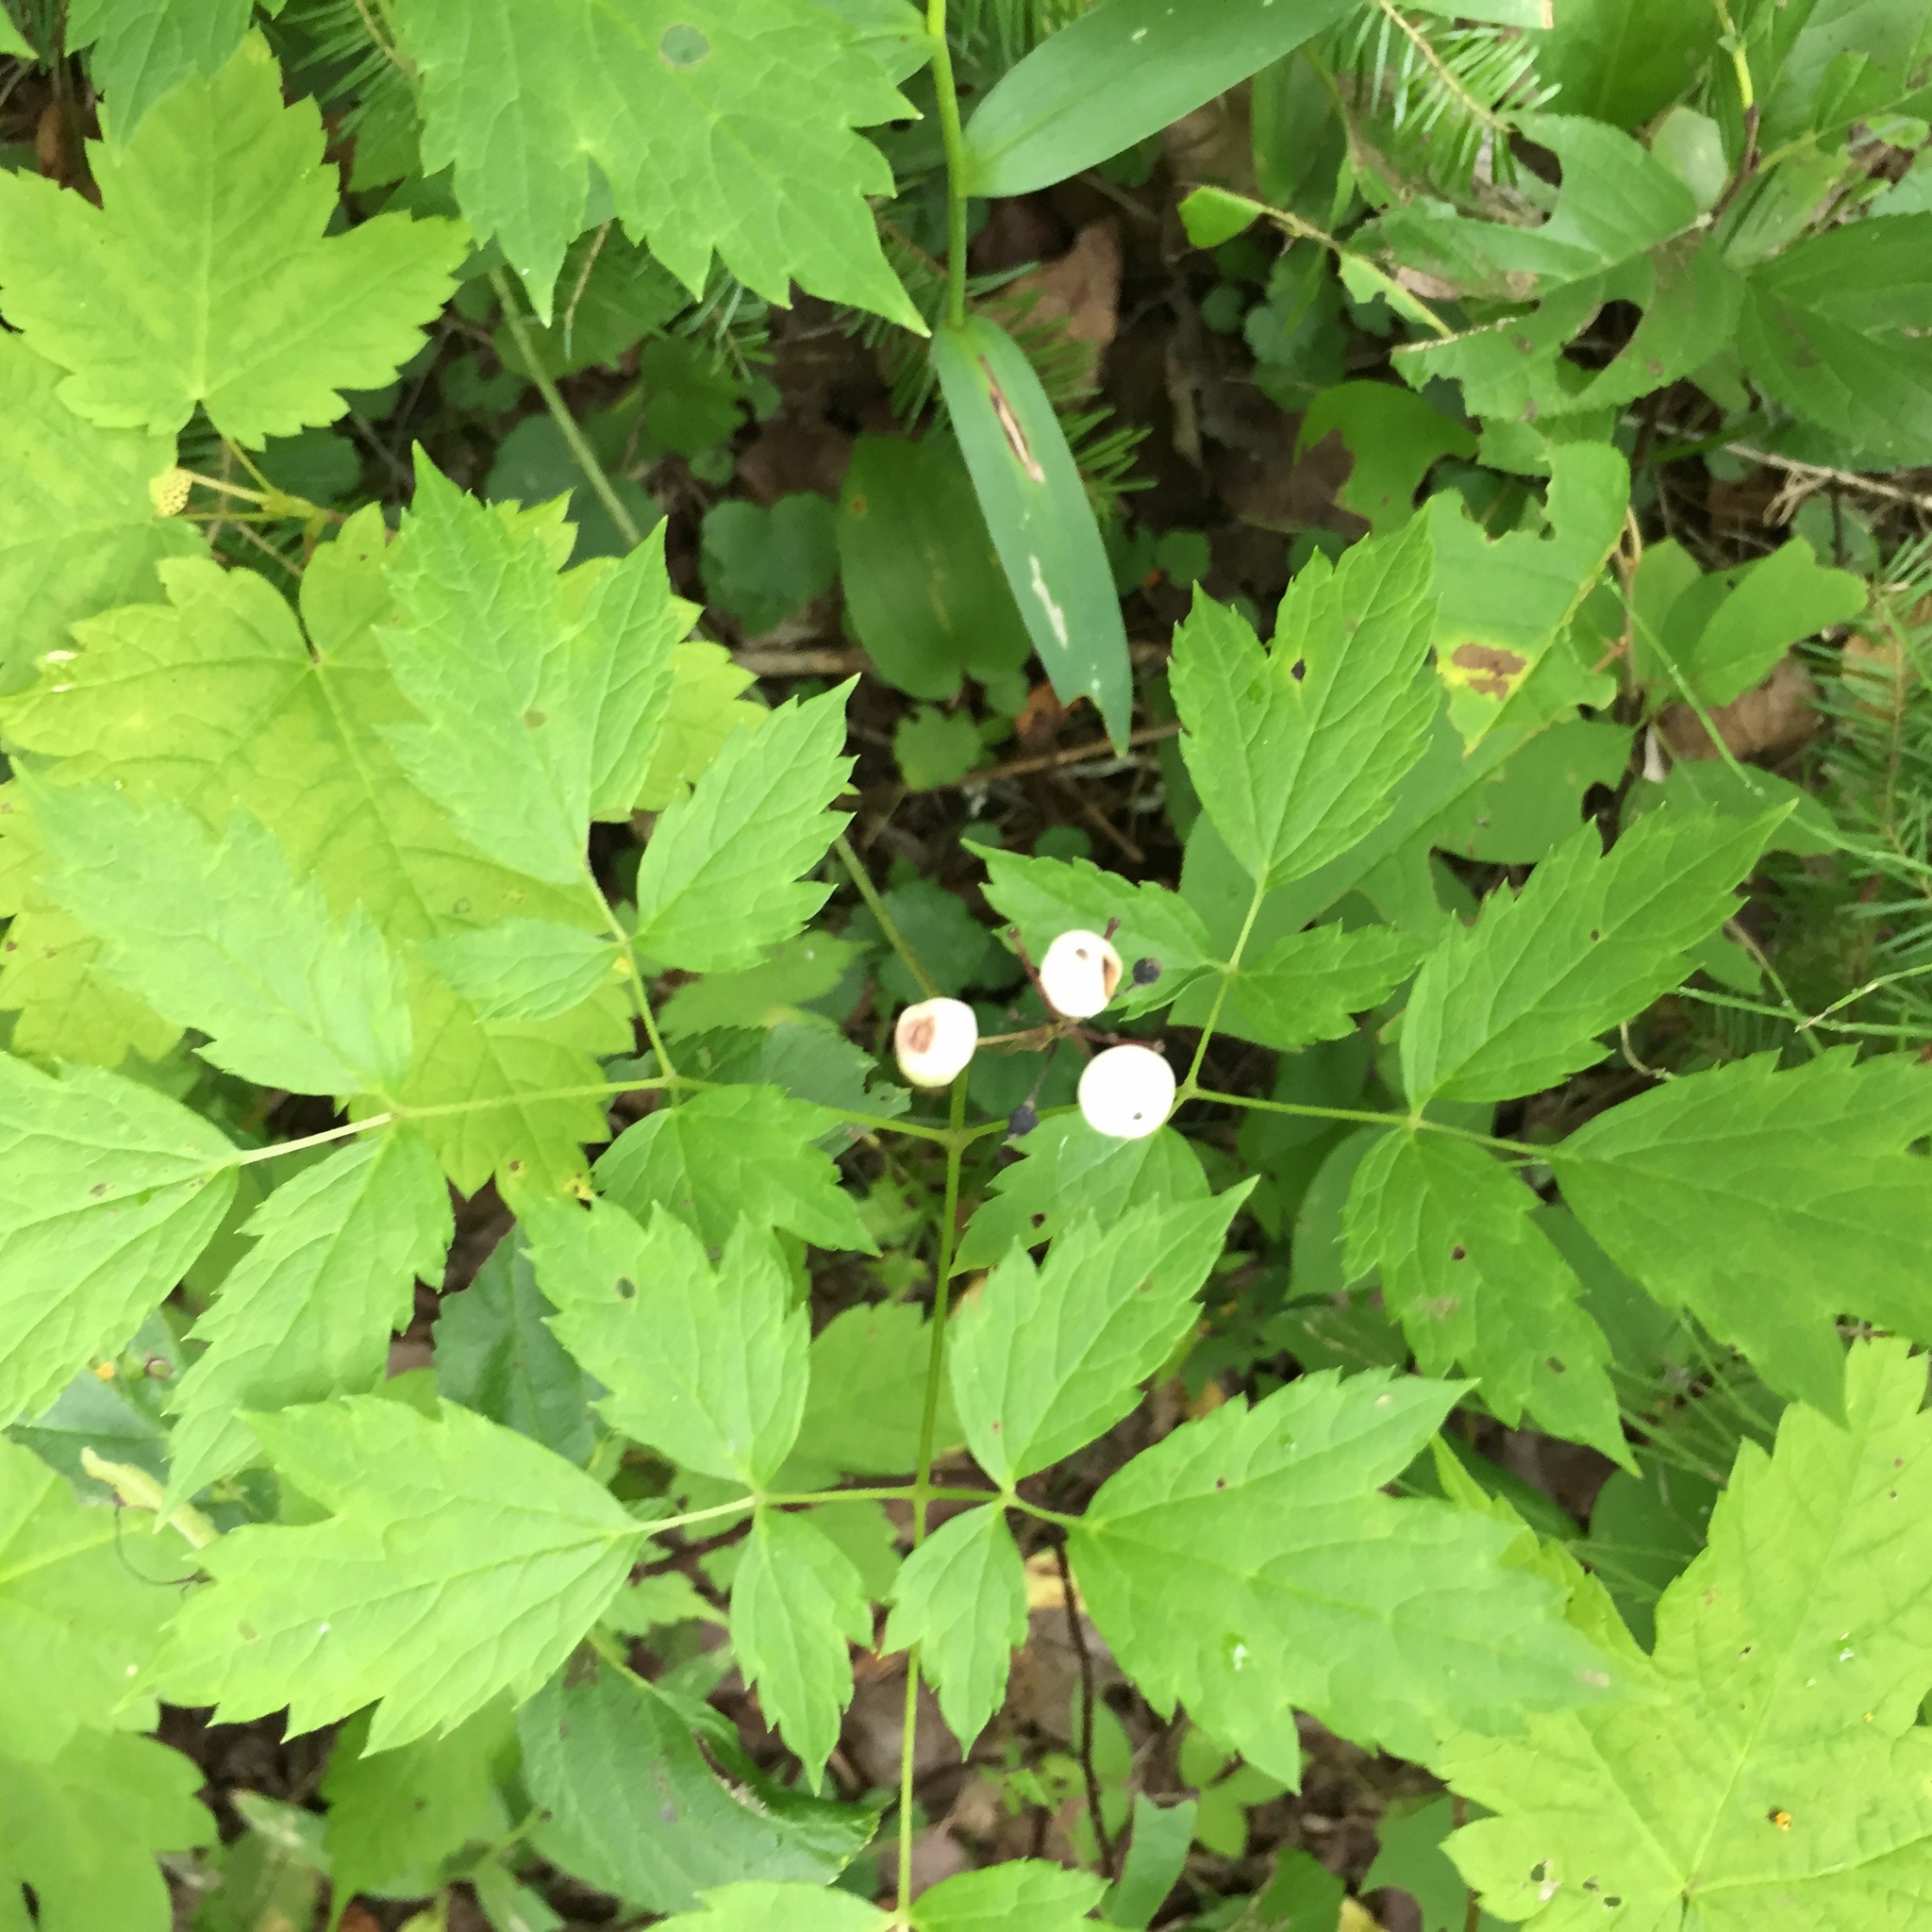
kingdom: Plantae
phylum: Tracheophyta
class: Magnoliopsida
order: Ranunculales
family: Ranunculaceae
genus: Actaea
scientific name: Actaea rubra
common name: Red baneberry
